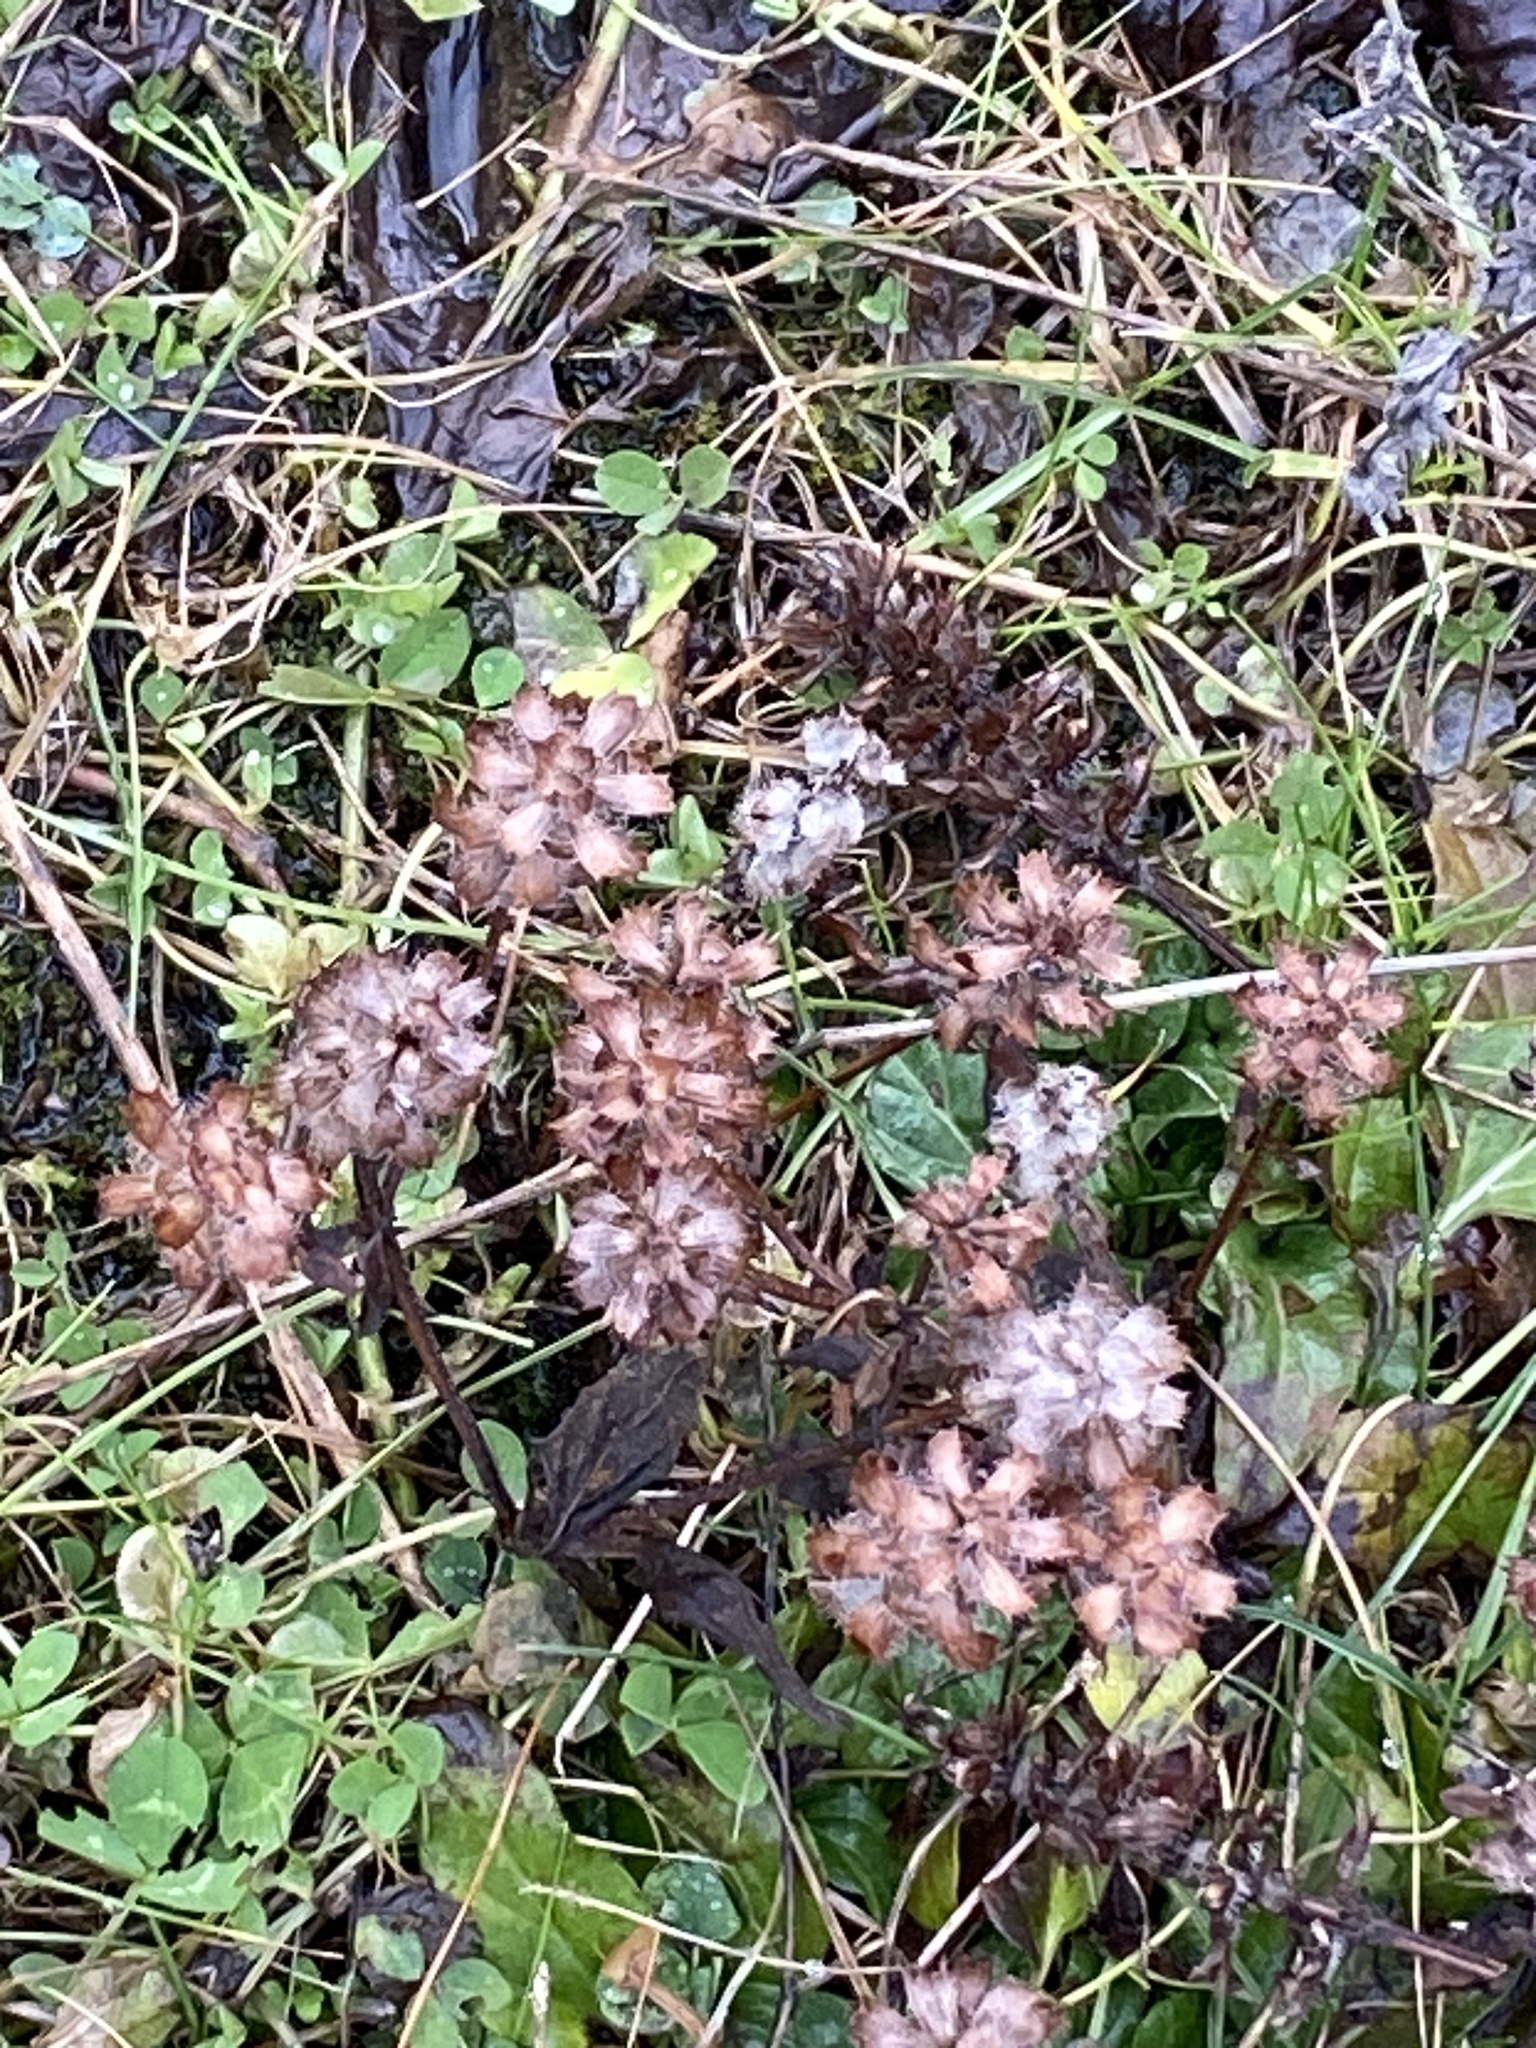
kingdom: Plantae
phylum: Tracheophyta
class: Magnoliopsida
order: Lamiales
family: Lamiaceae
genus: Prunella
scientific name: Prunella vulgaris
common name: Heal-all
